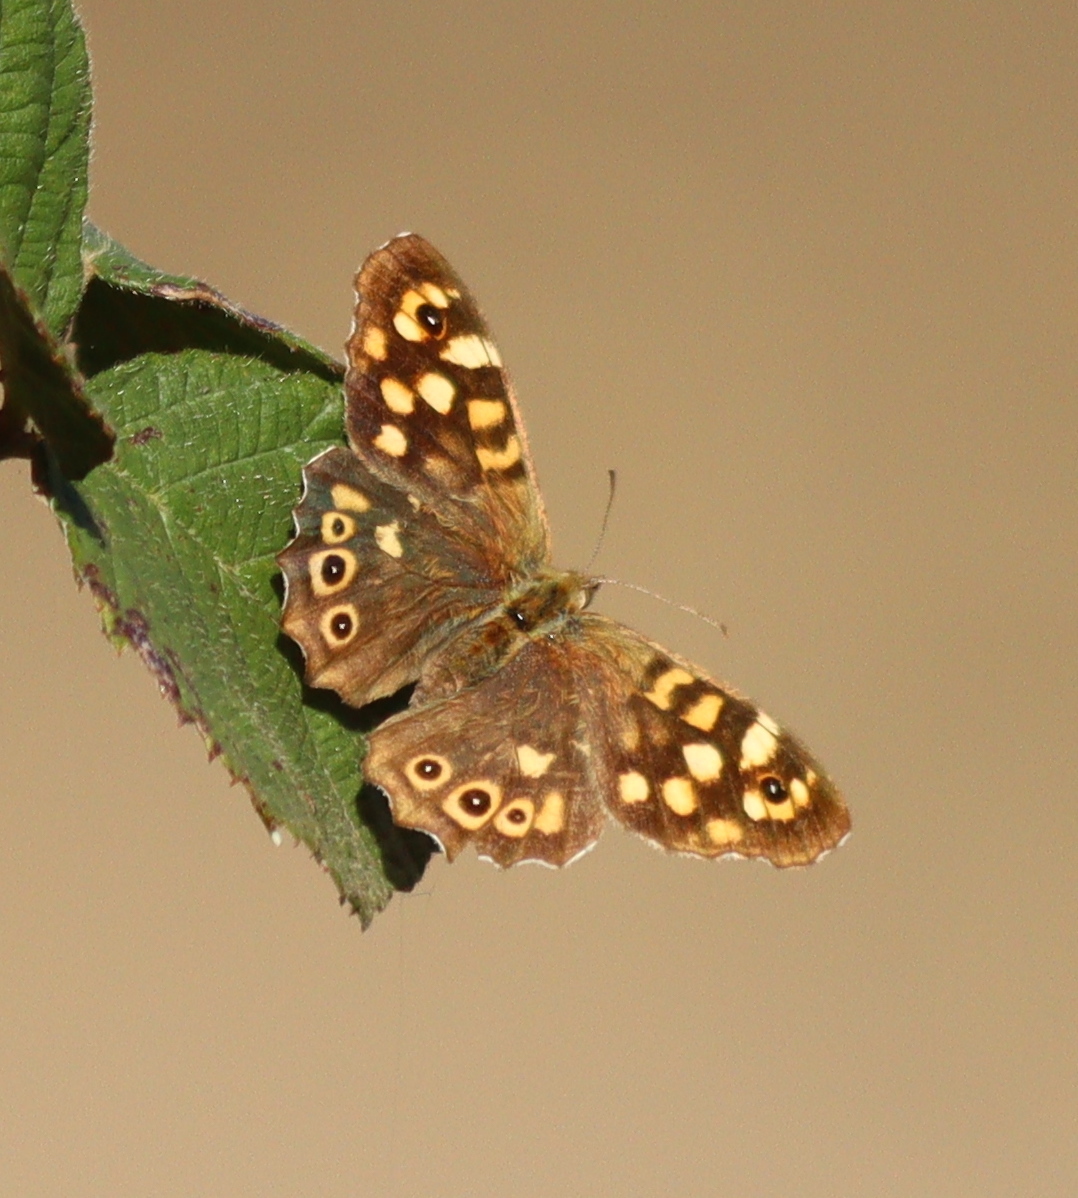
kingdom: Animalia
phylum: Arthropoda
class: Insecta
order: Lepidoptera
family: Nymphalidae
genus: Pararge
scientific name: Pararge aegeria
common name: Speckled wood
